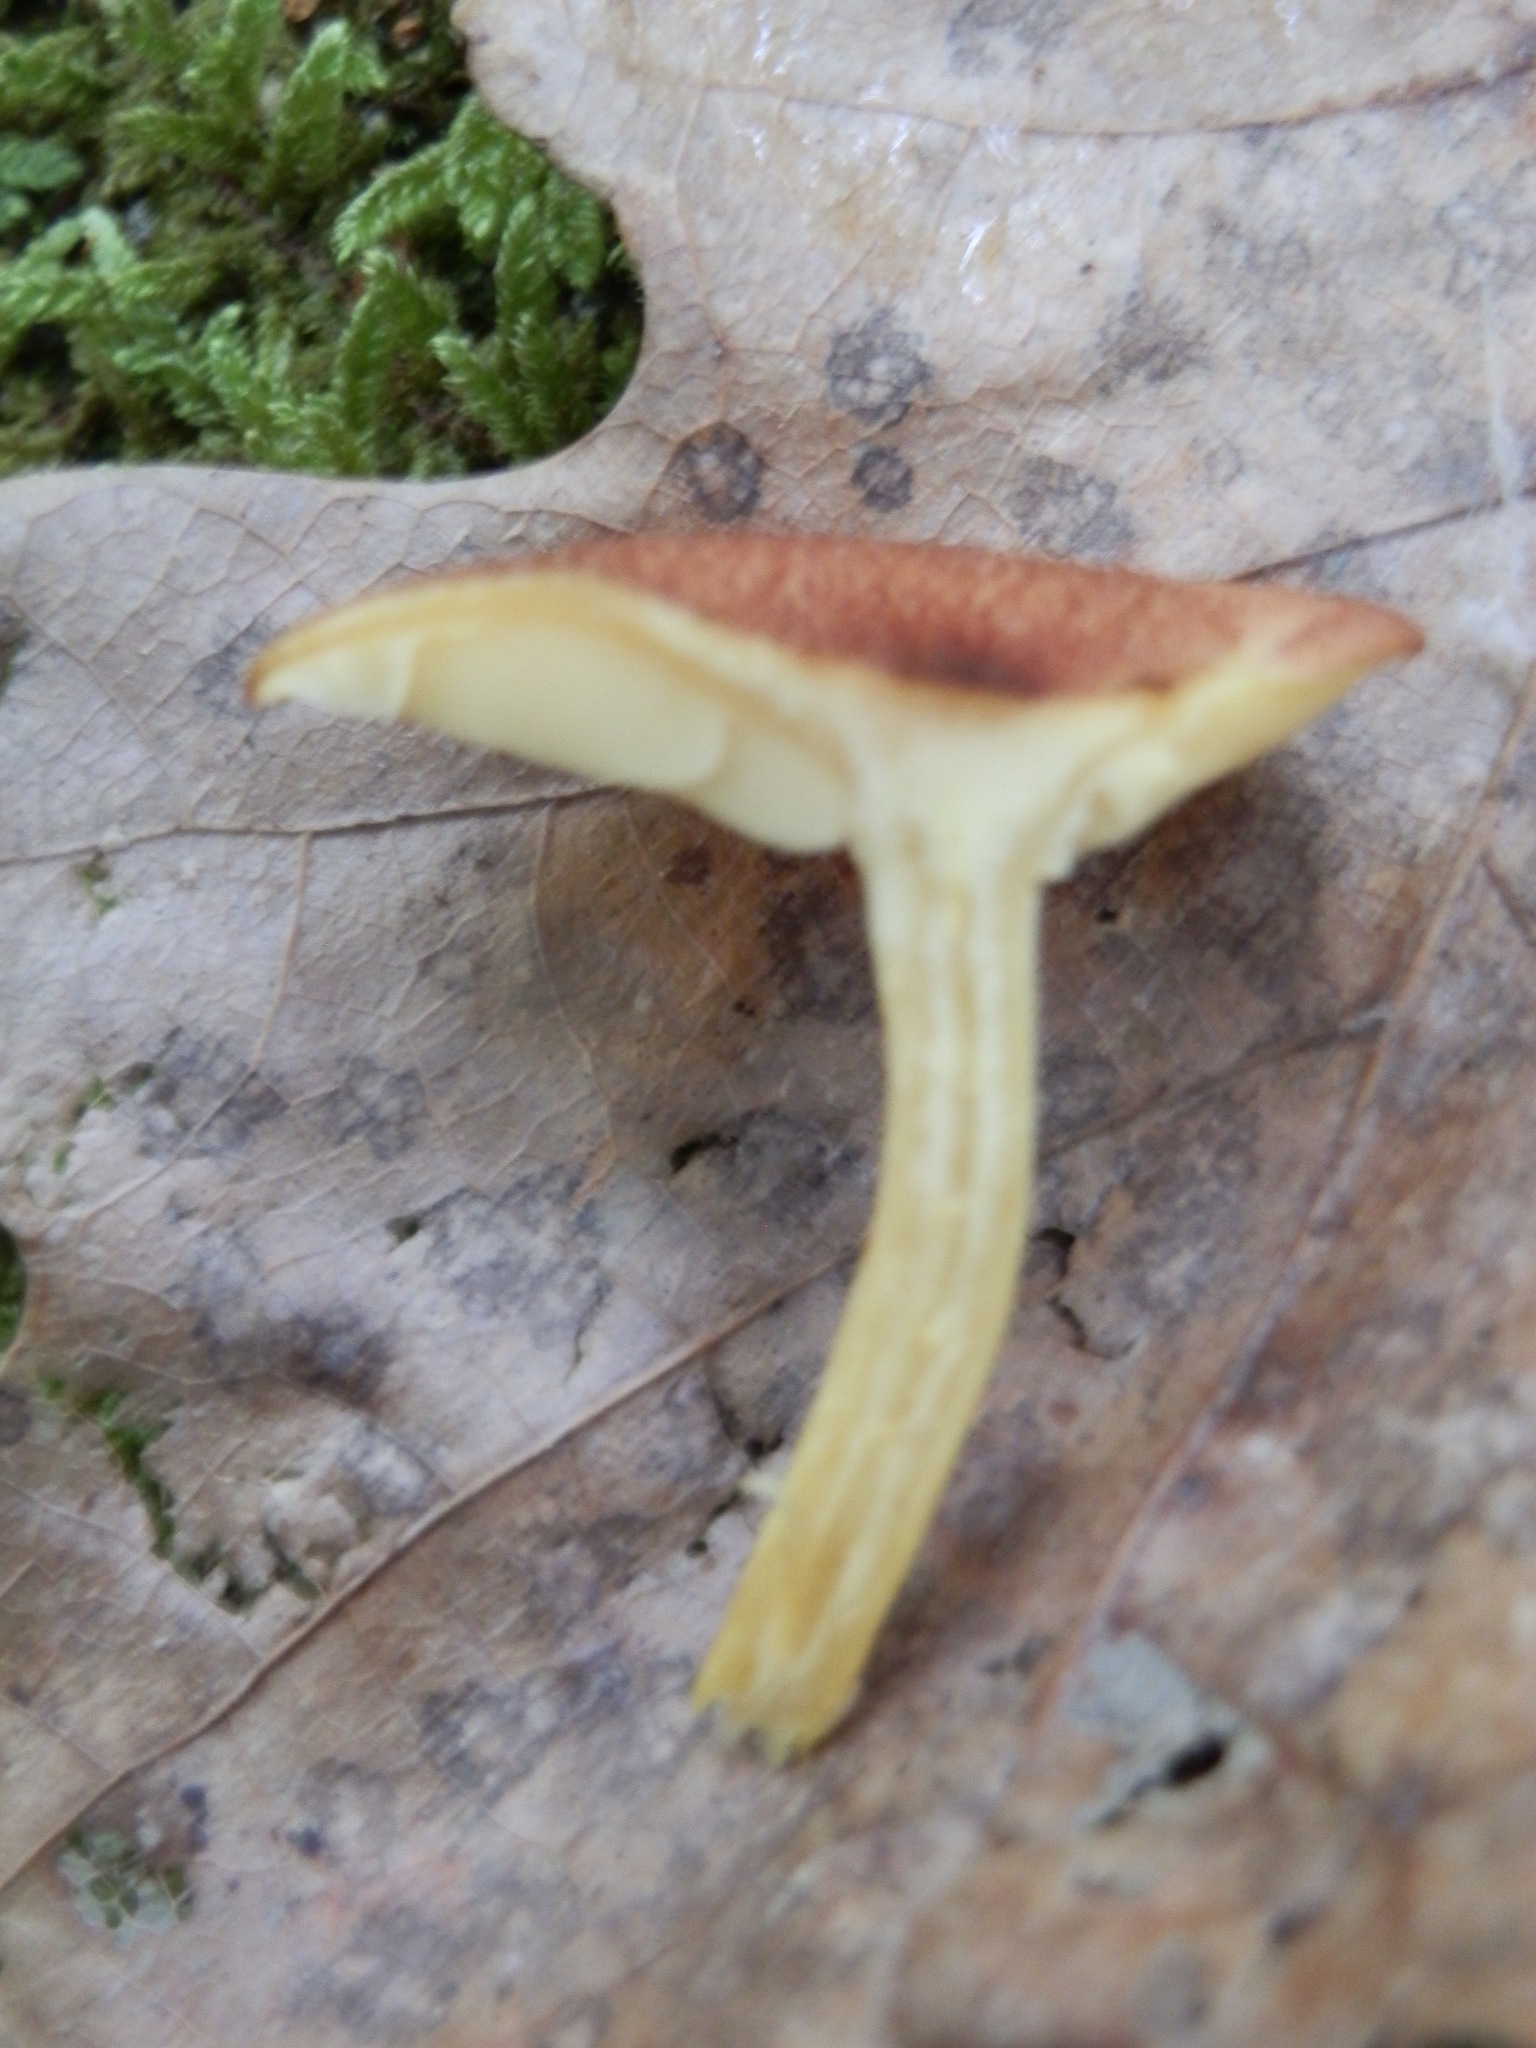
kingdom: Fungi
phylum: Basidiomycota
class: Agaricomycetes
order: Agaricales
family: Tricholomataceae
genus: Tricholomopsis
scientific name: Tricholomopsis flammula
